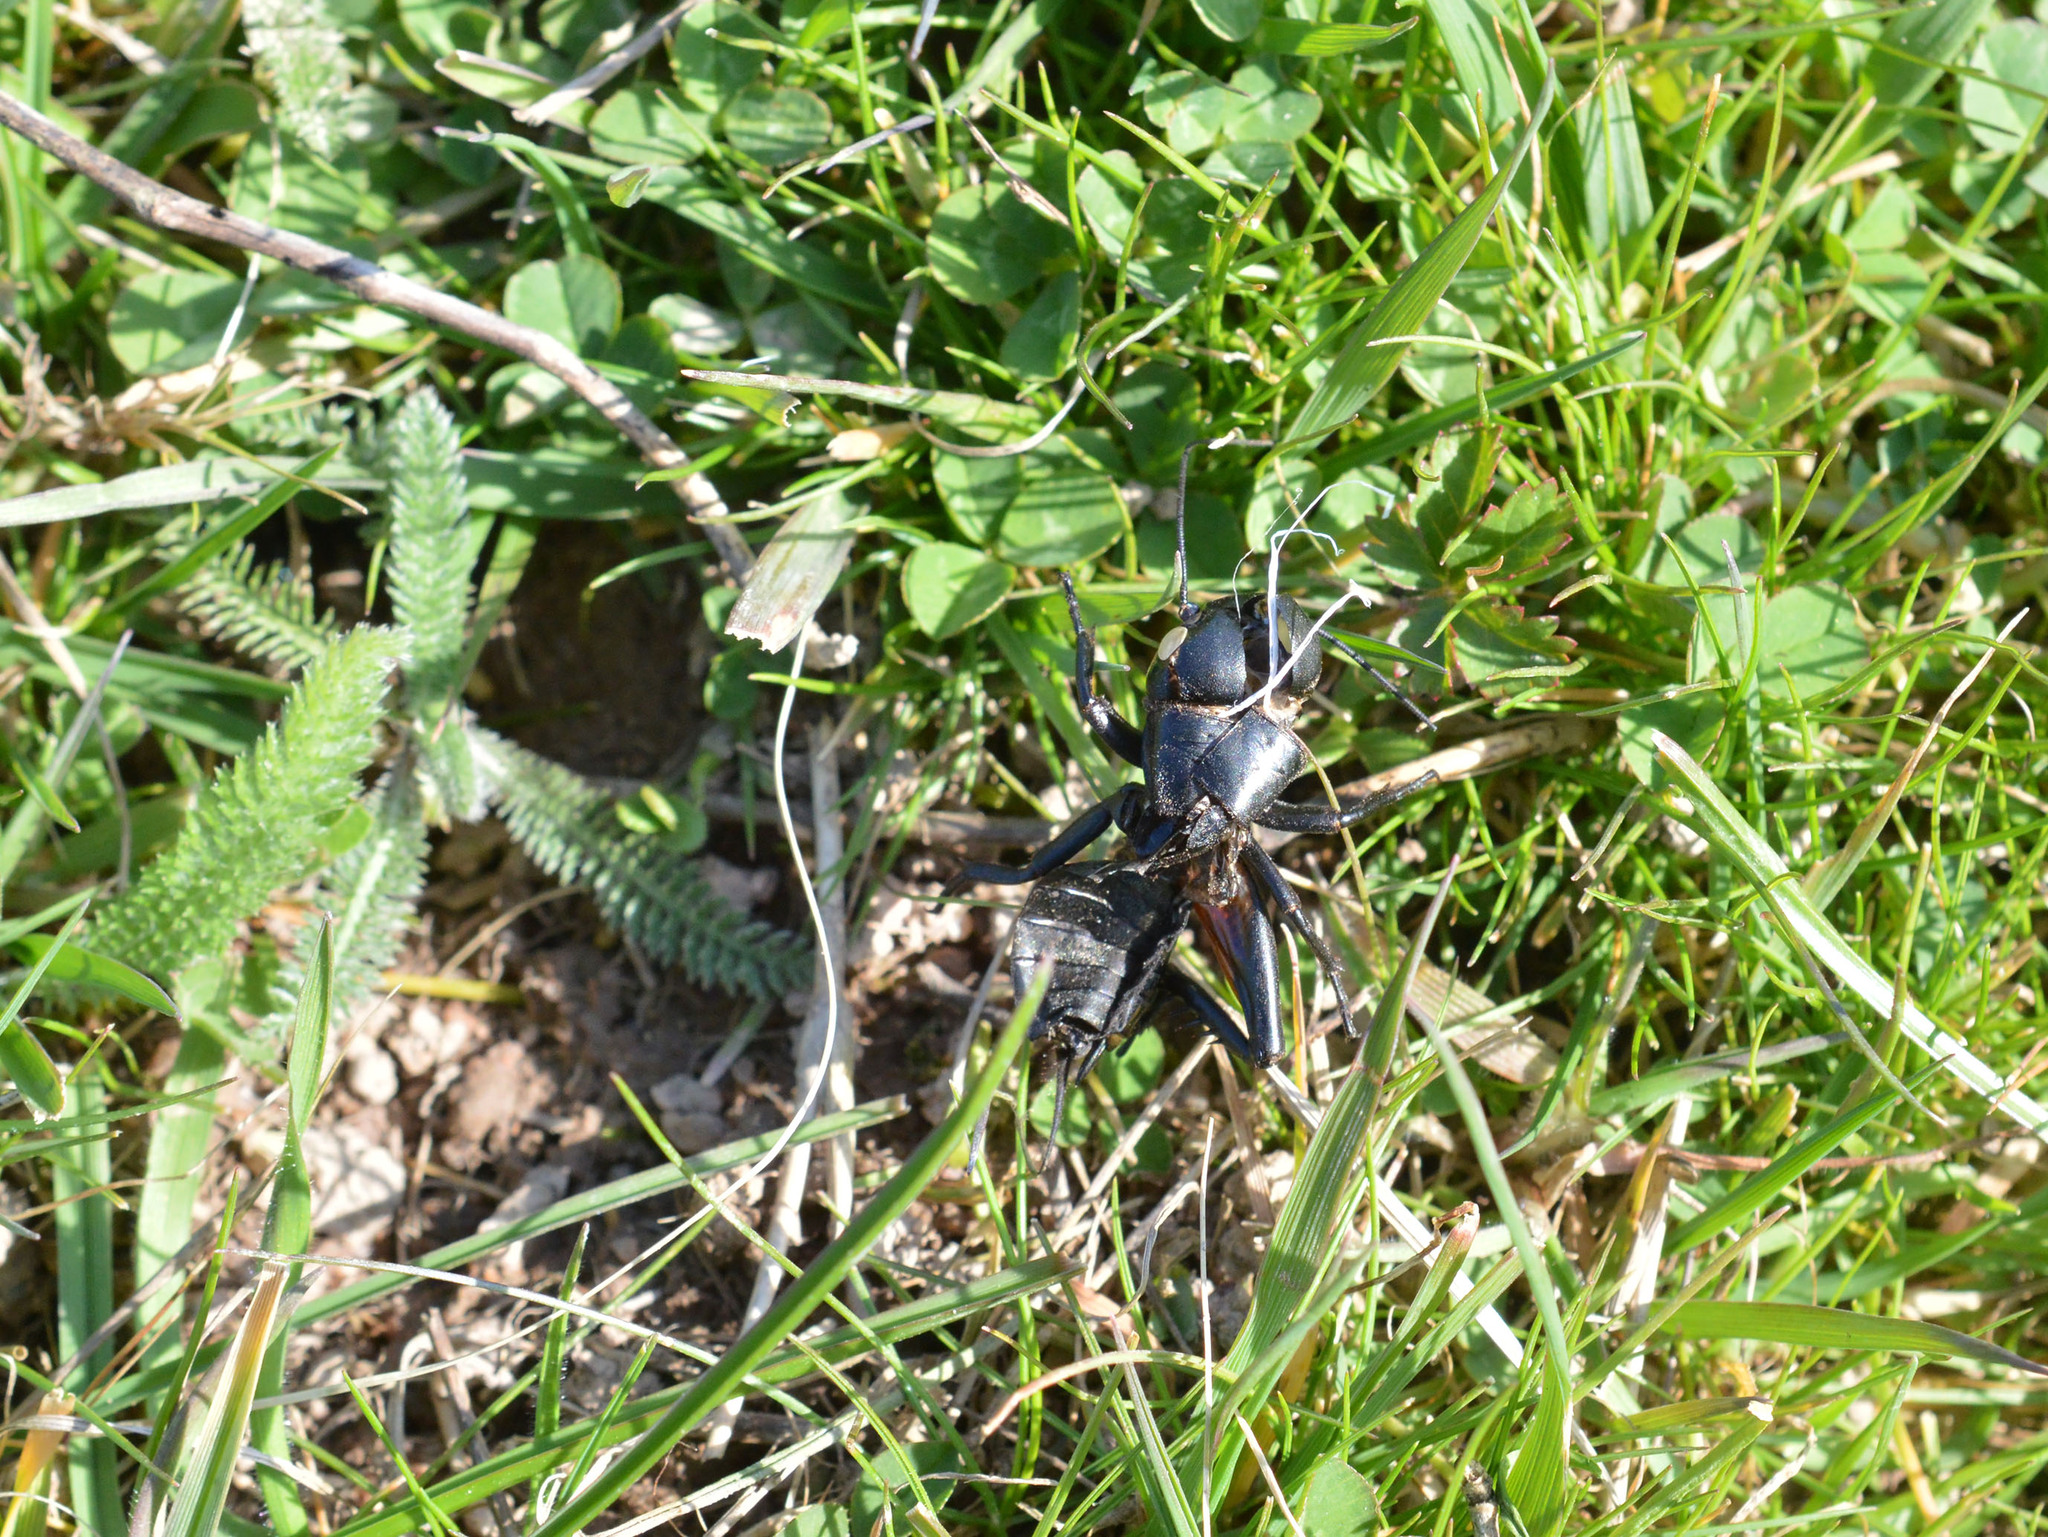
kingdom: Animalia
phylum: Arthropoda
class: Insecta
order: Orthoptera
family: Gryllidae
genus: Gryllus
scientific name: Gryllus campestris
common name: Field cricket
